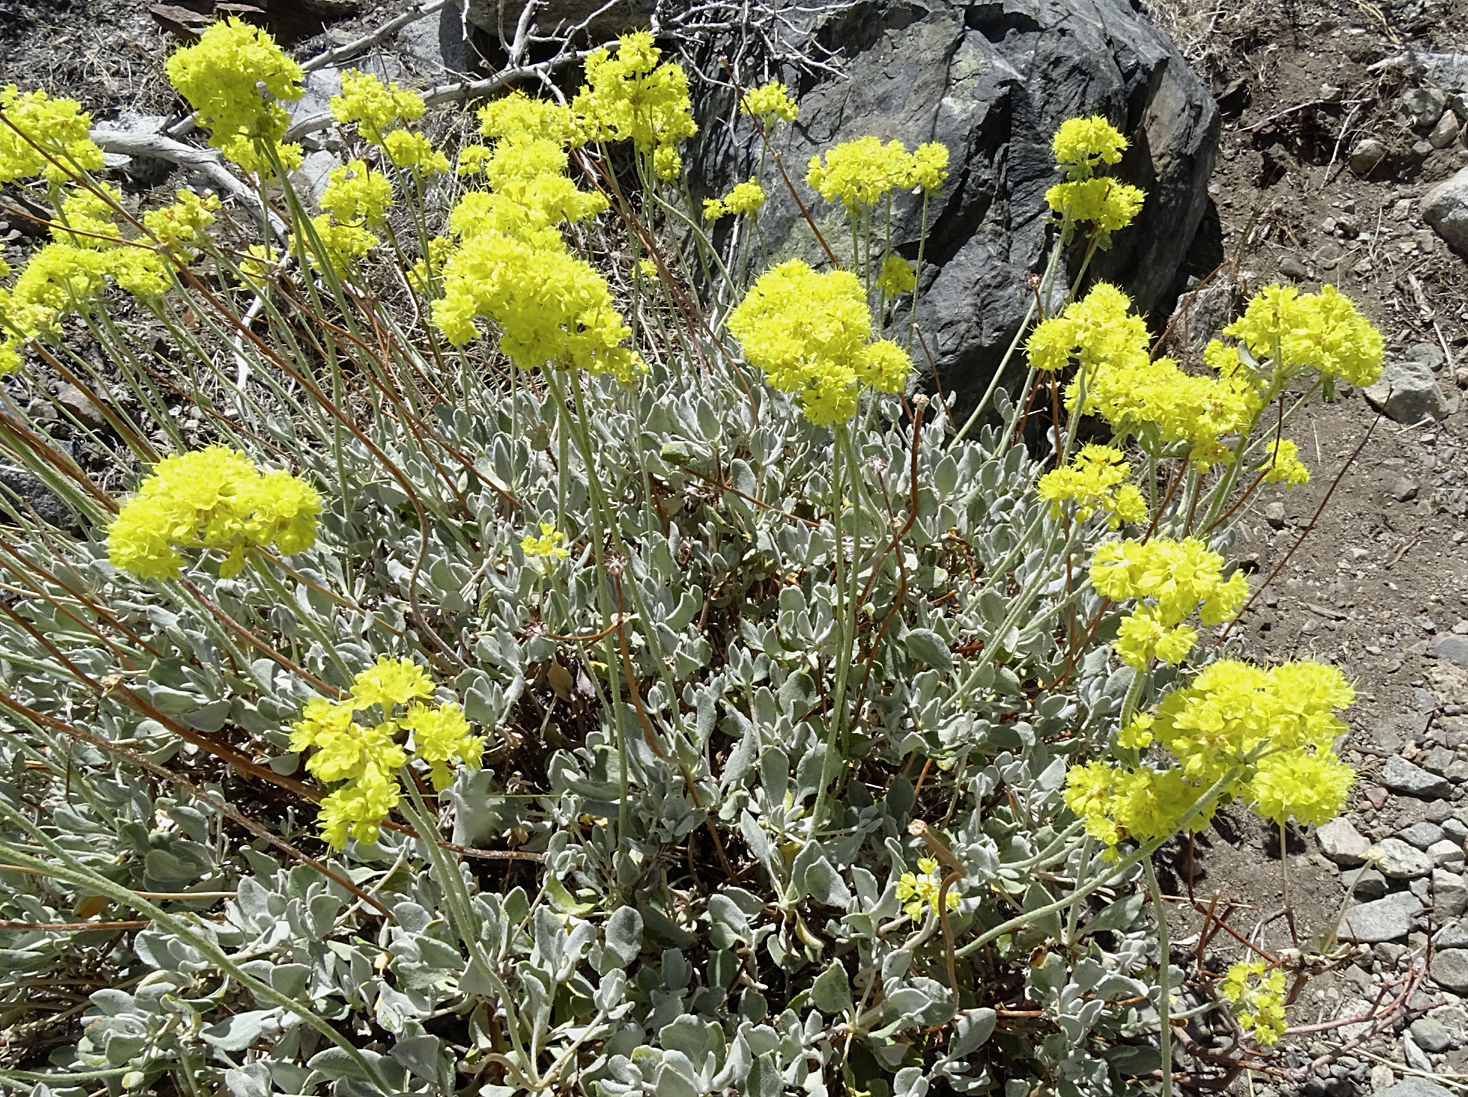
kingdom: Plantae
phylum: Tracheophyta
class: Magnoliopsida
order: Caryophyllales
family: Polygonaceae
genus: Eriogonum
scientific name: Eriogonum umbellatum
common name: Sulfur-buckwheat
